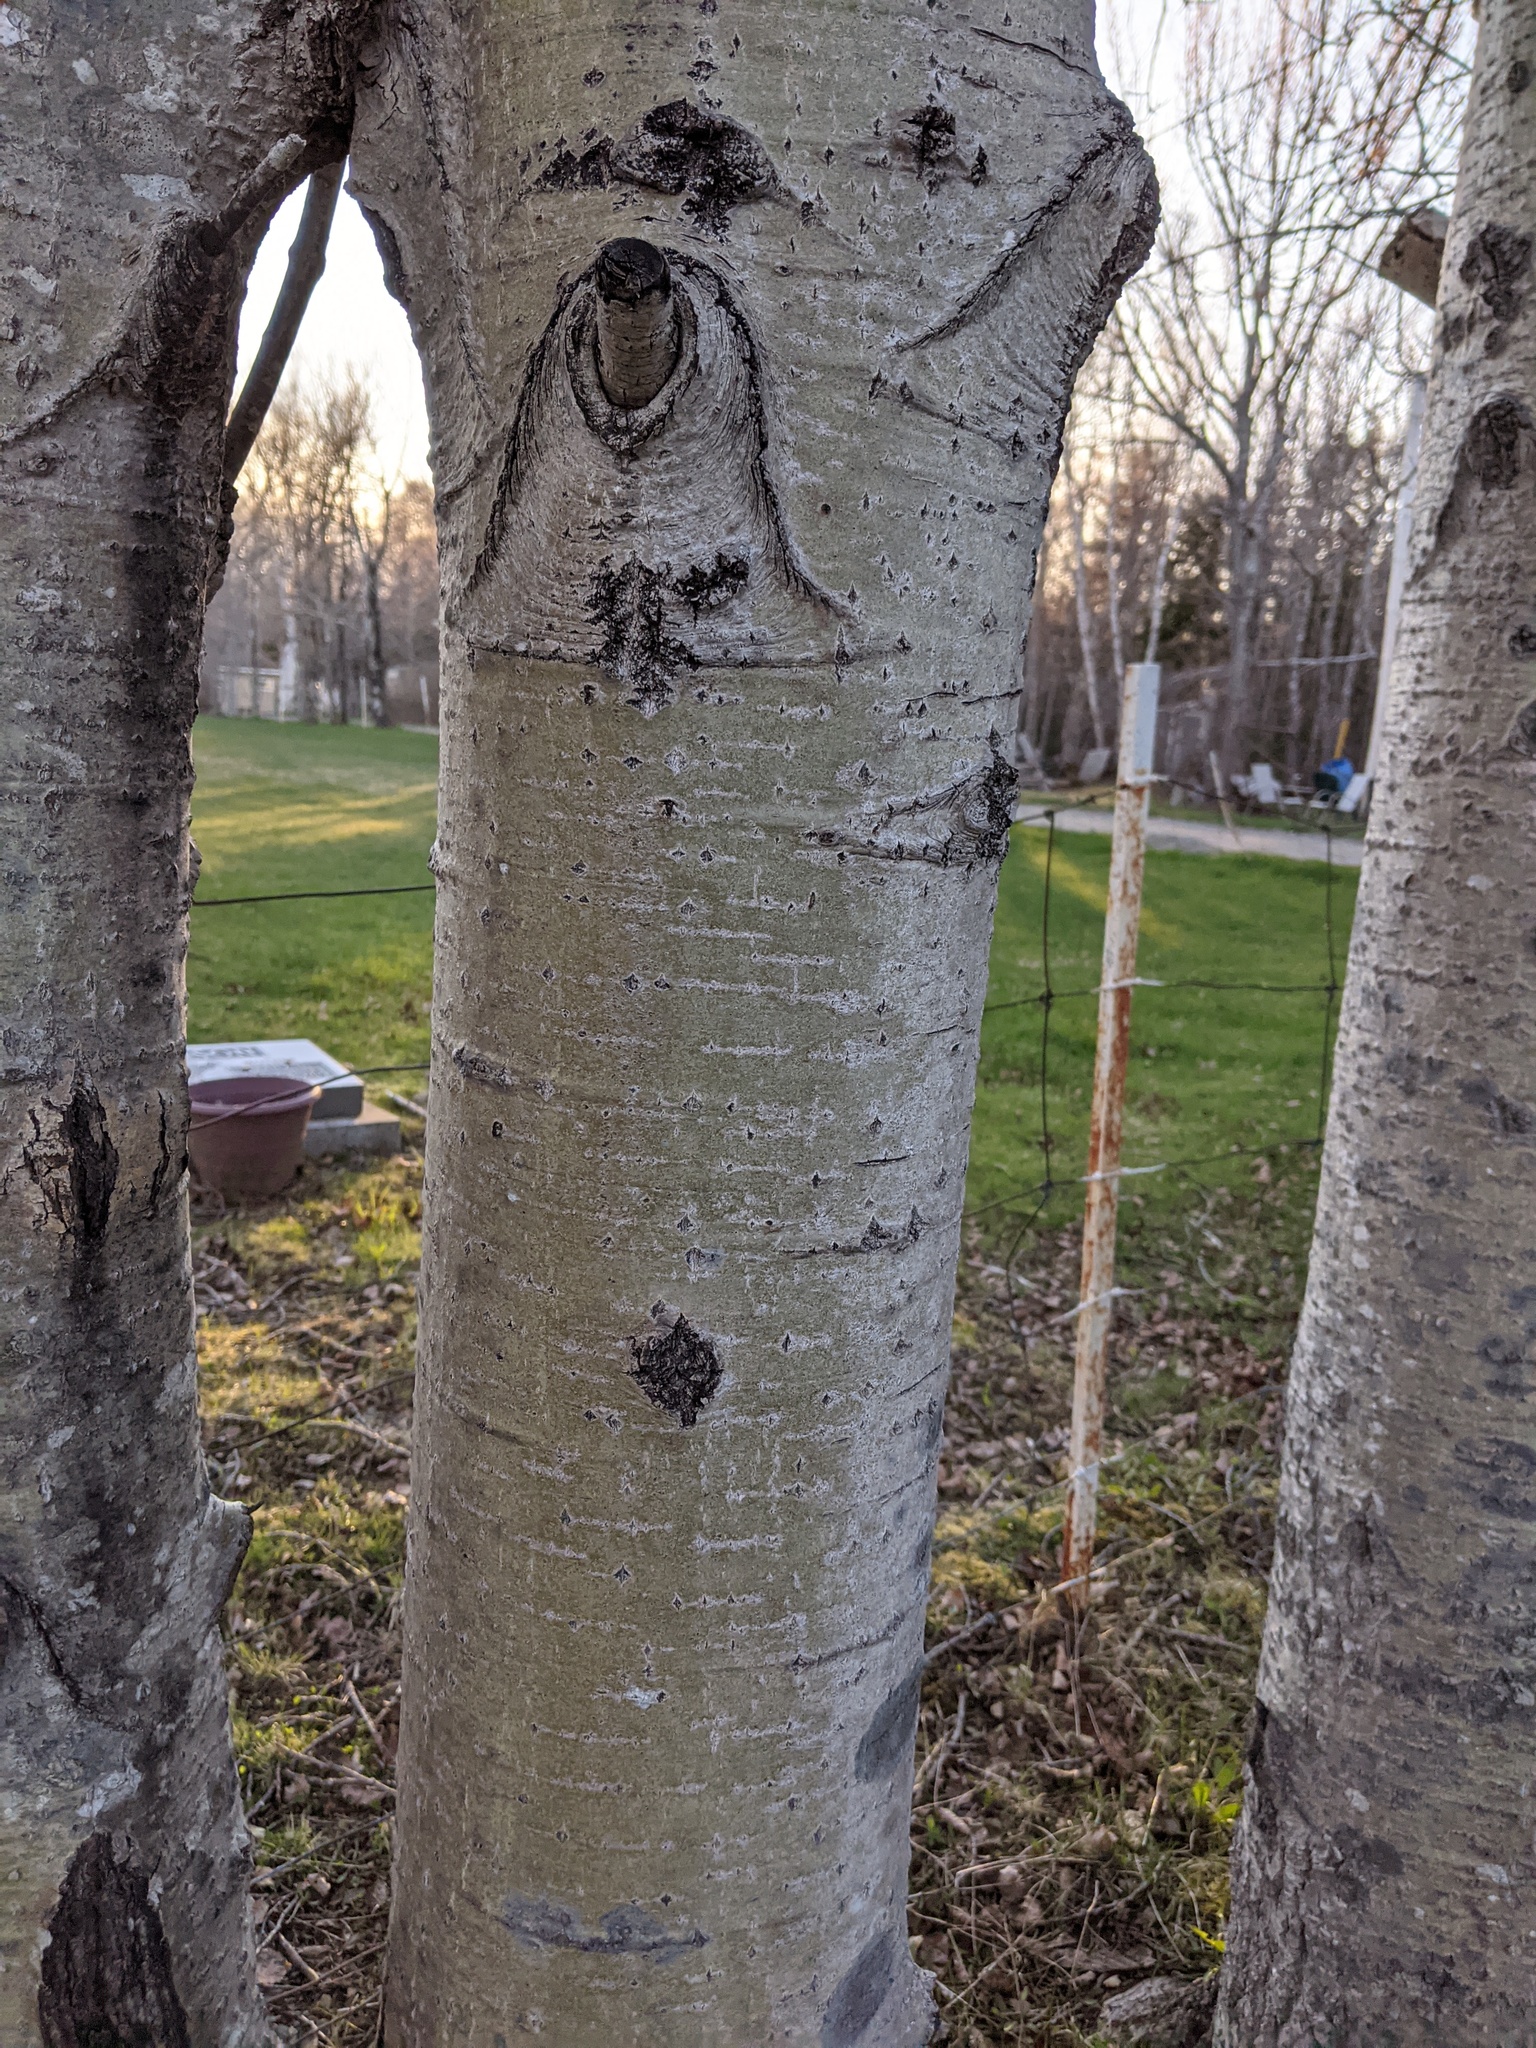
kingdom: Plantae
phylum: Tracheophyta
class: Magnoliopsida
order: Malpighiales
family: Salicaceae
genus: Populus
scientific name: Populus tremuloides
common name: Quaking aspen
